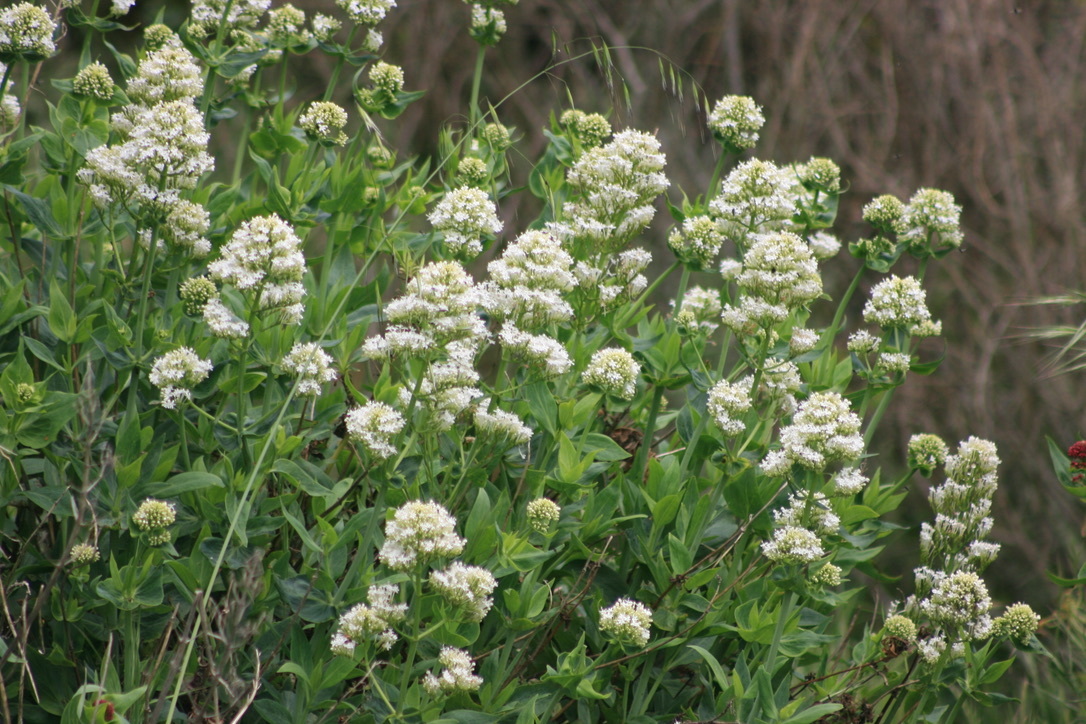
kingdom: Plantae
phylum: Tracheophyta
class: Magnoliopsida
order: Dipsacales
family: Caprifoliaceae
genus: Centranthus
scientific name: Centranthus ruber
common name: Red valerian
